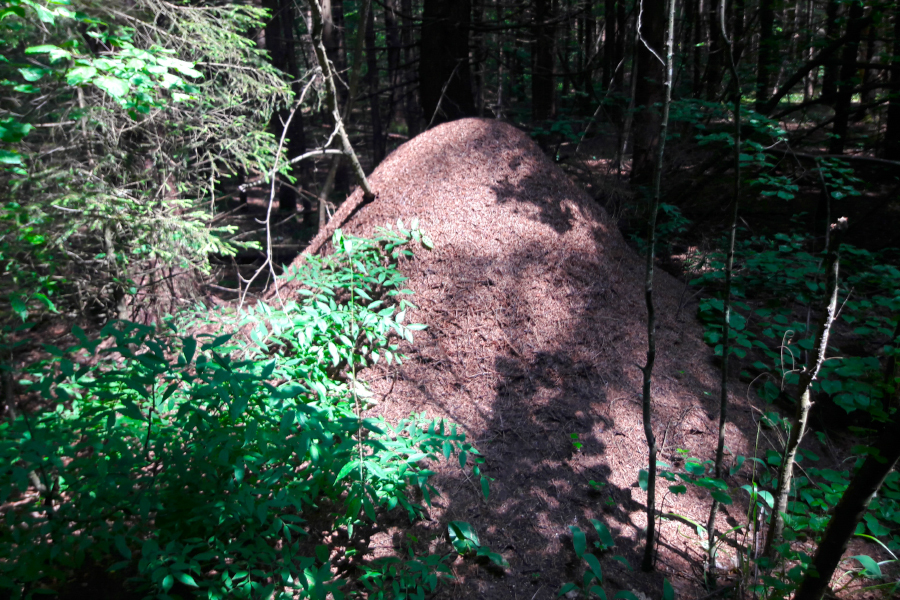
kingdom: Animalia
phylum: Arthropoda
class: Insecta
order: Hymenoptera
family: Formicidae
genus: Formica
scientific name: Formica
